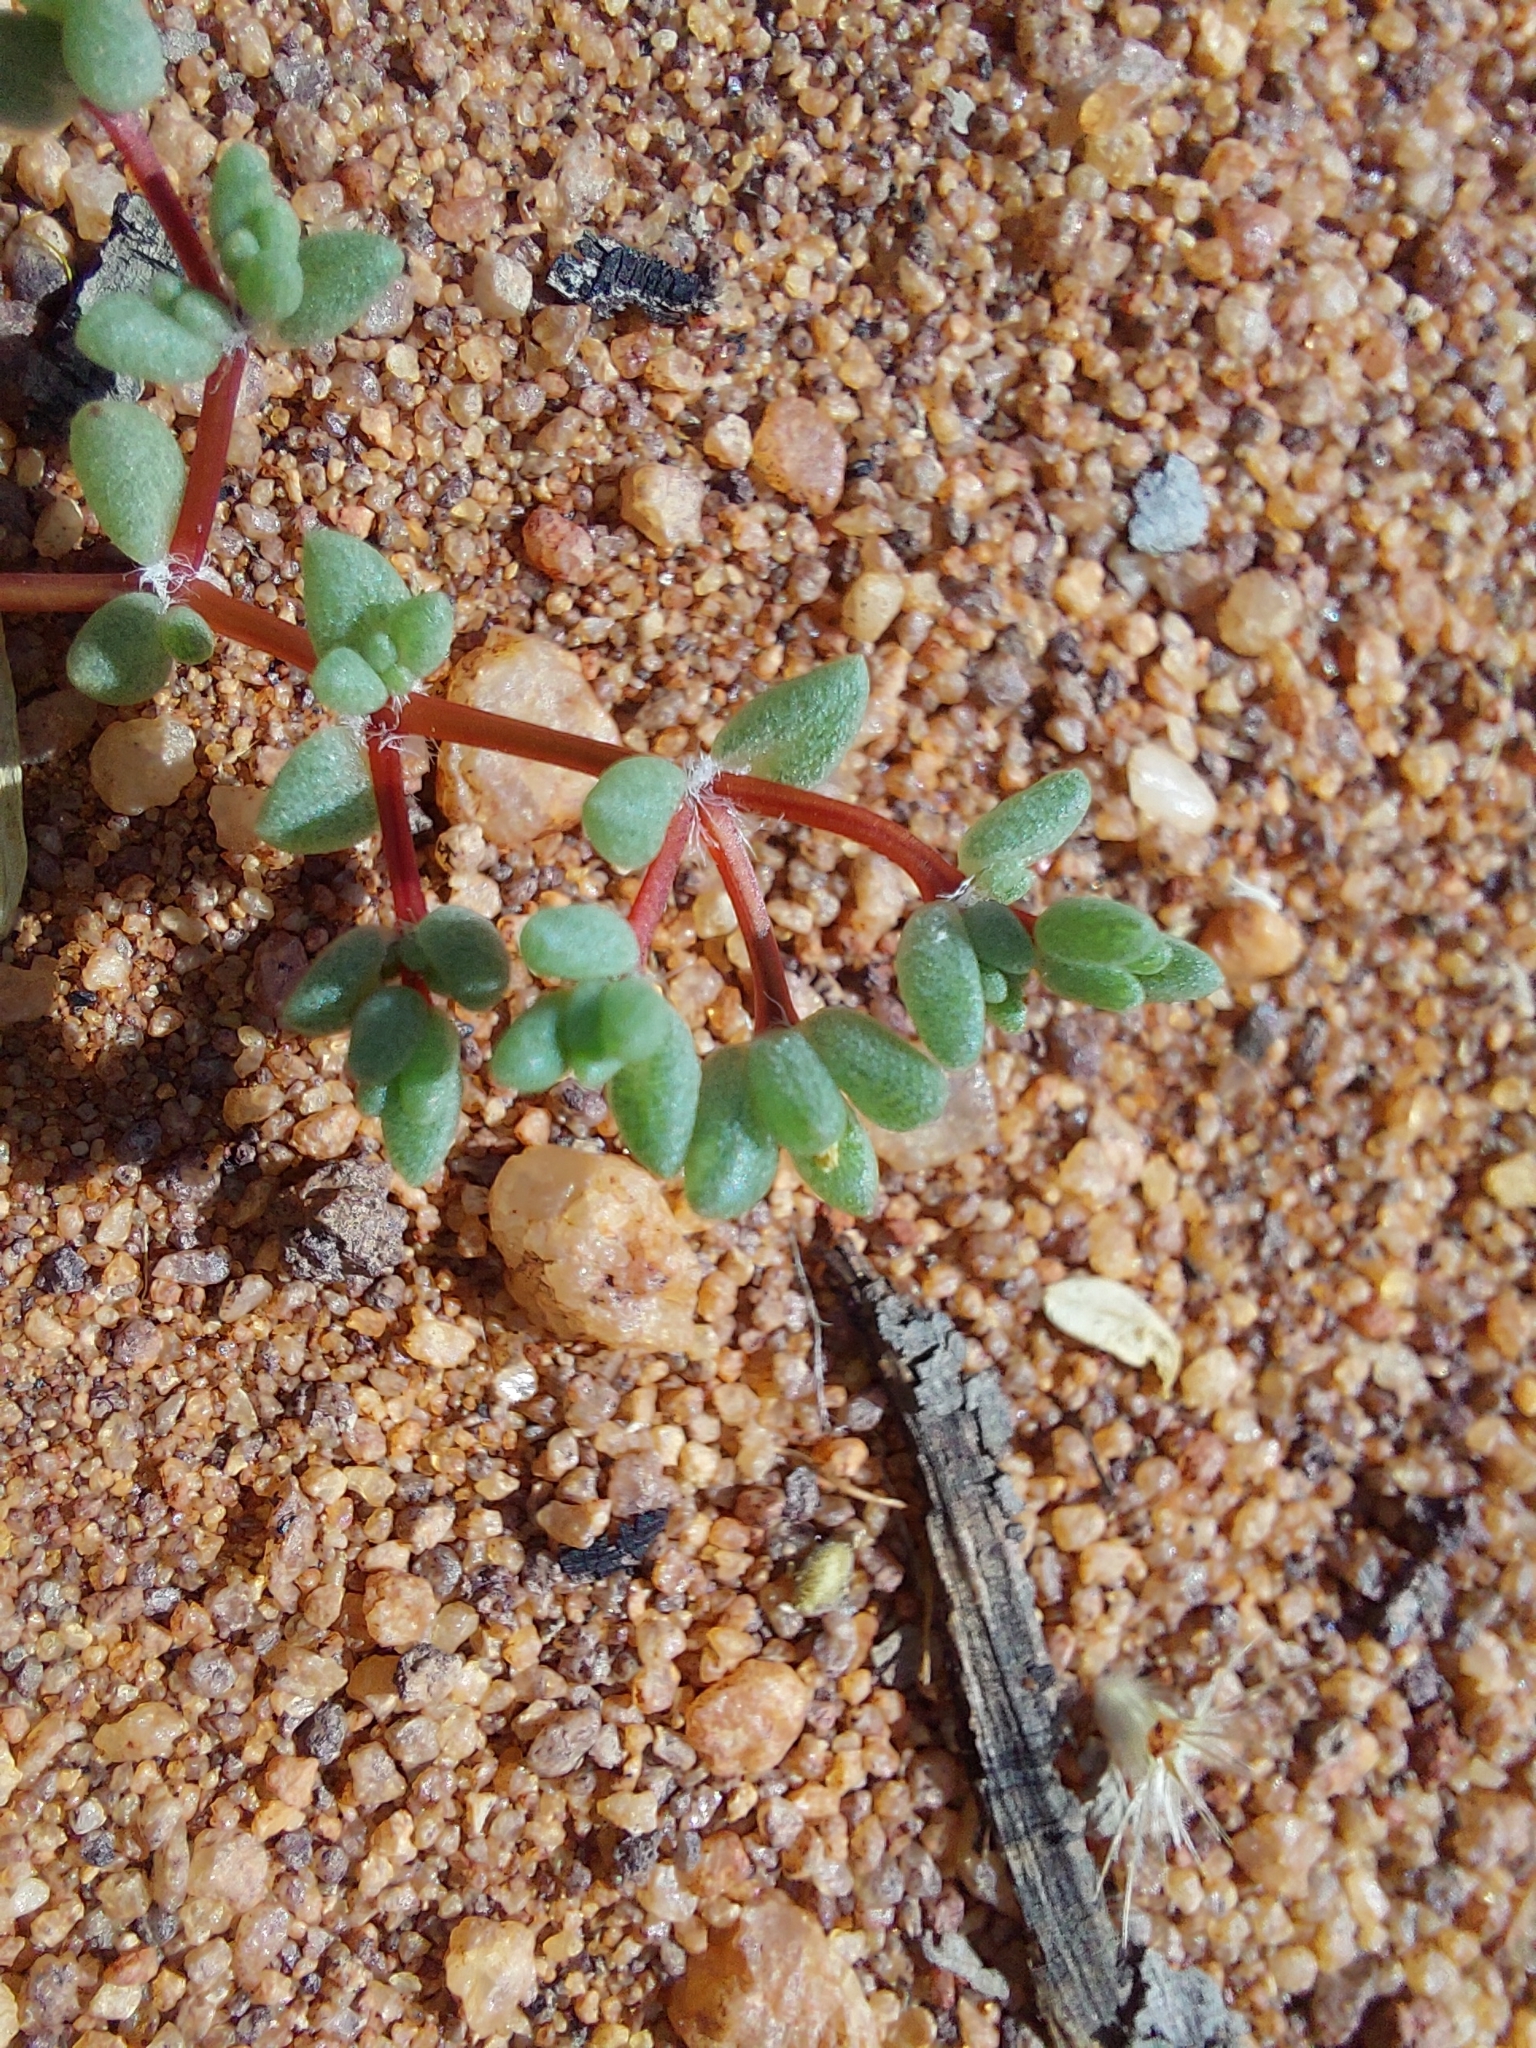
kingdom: Plantae
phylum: Tracheophyta
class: Magnoliopsida
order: Caryophyllales
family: Portulacaceae
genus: Portulaca
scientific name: Portulaca hereroensis
